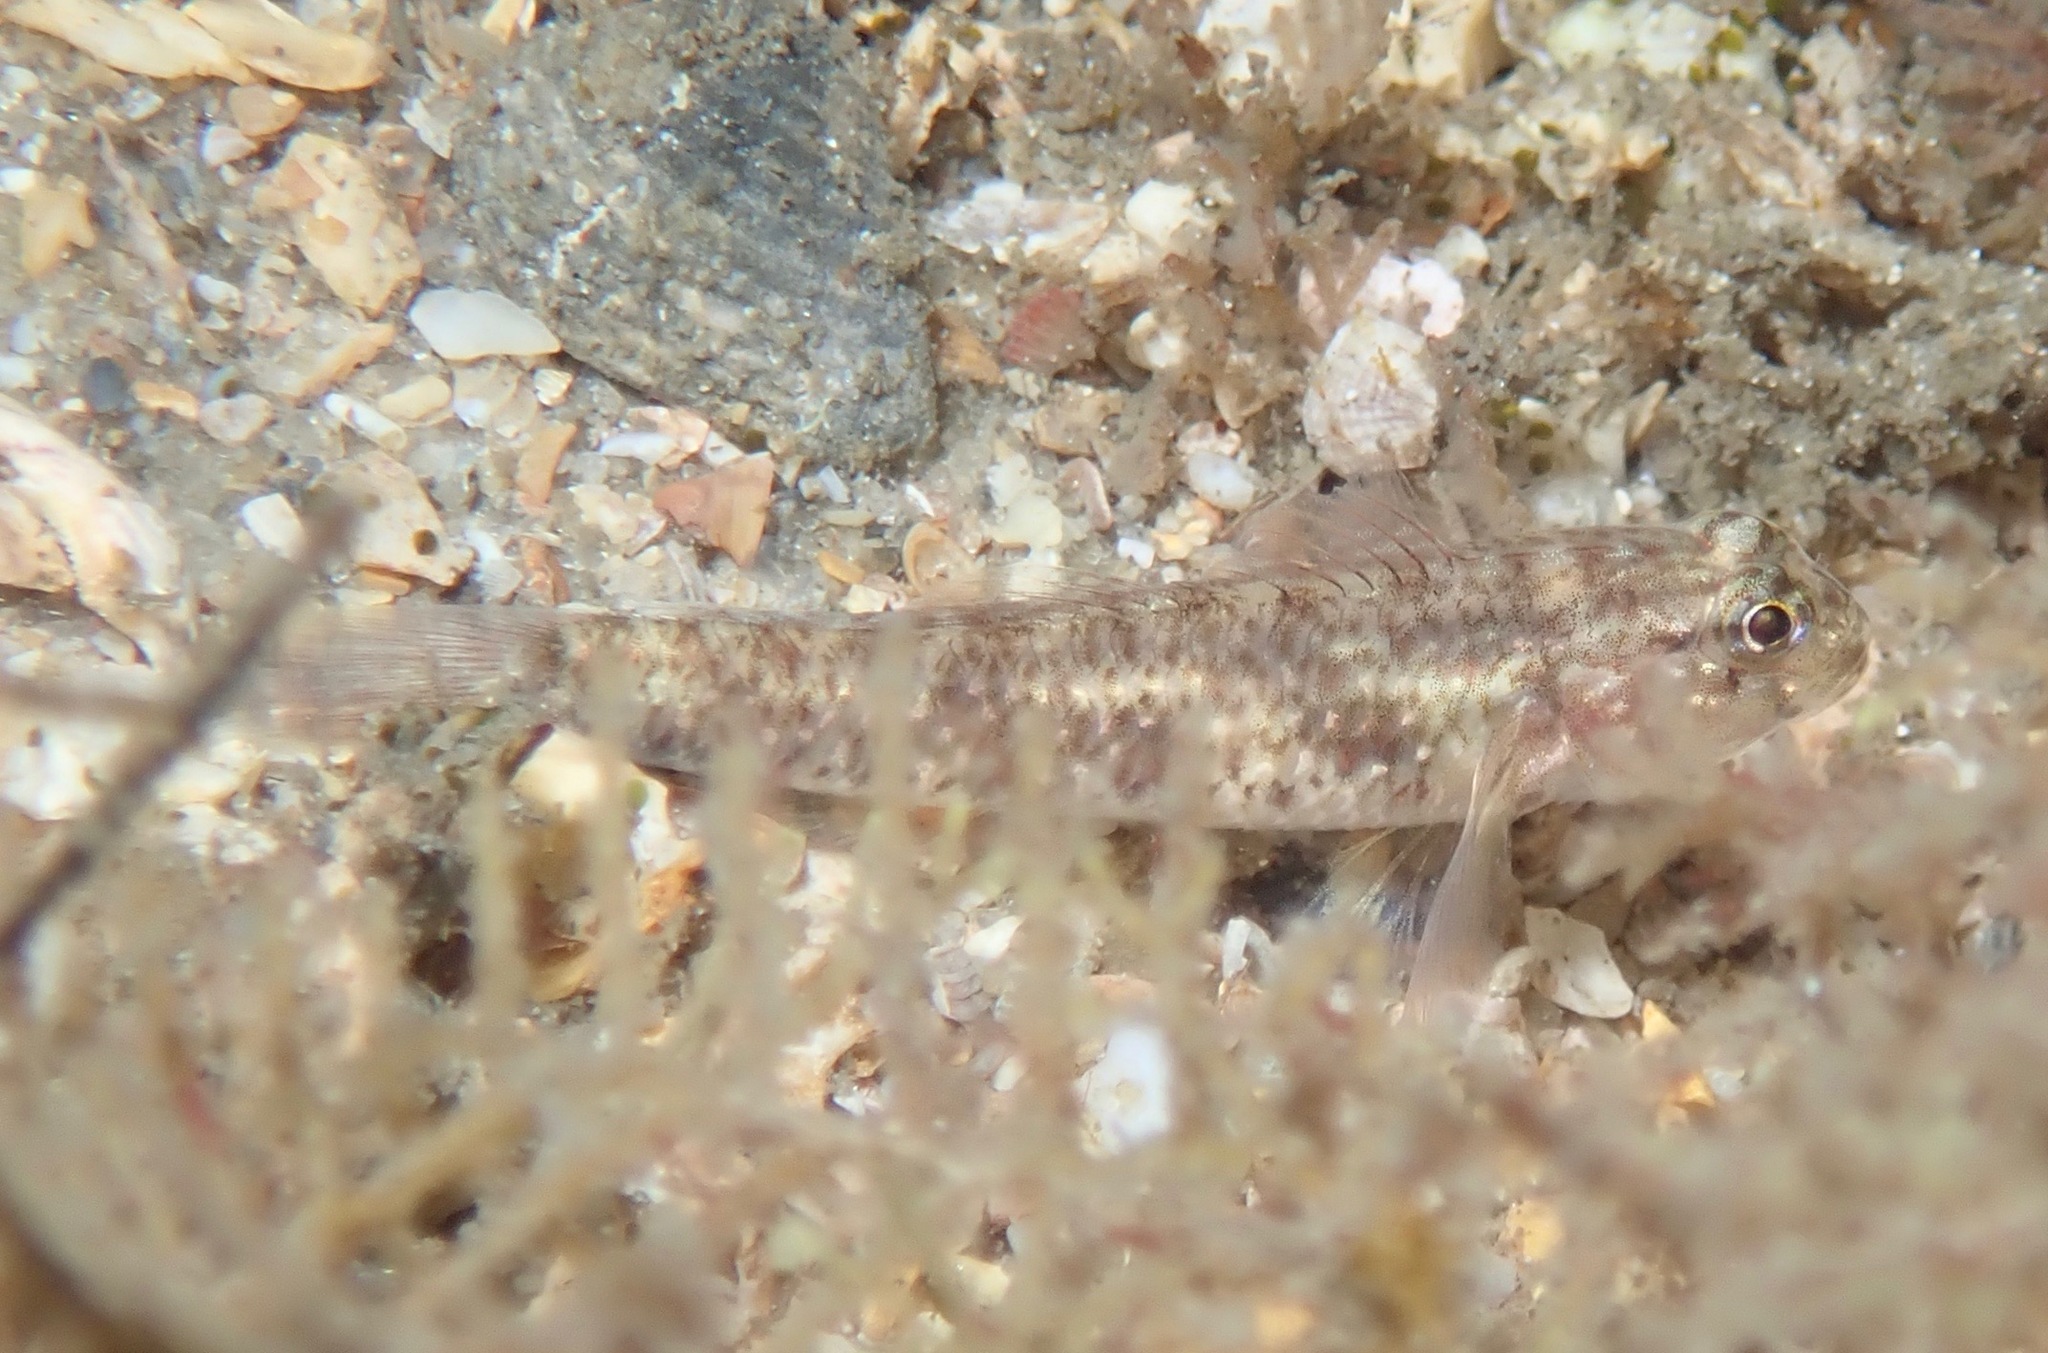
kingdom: Animalia
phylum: Chordata
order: Perciformes
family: Gobiidae
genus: Coryphopterus
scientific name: Coryphopterus dicrus
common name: Colon goby
